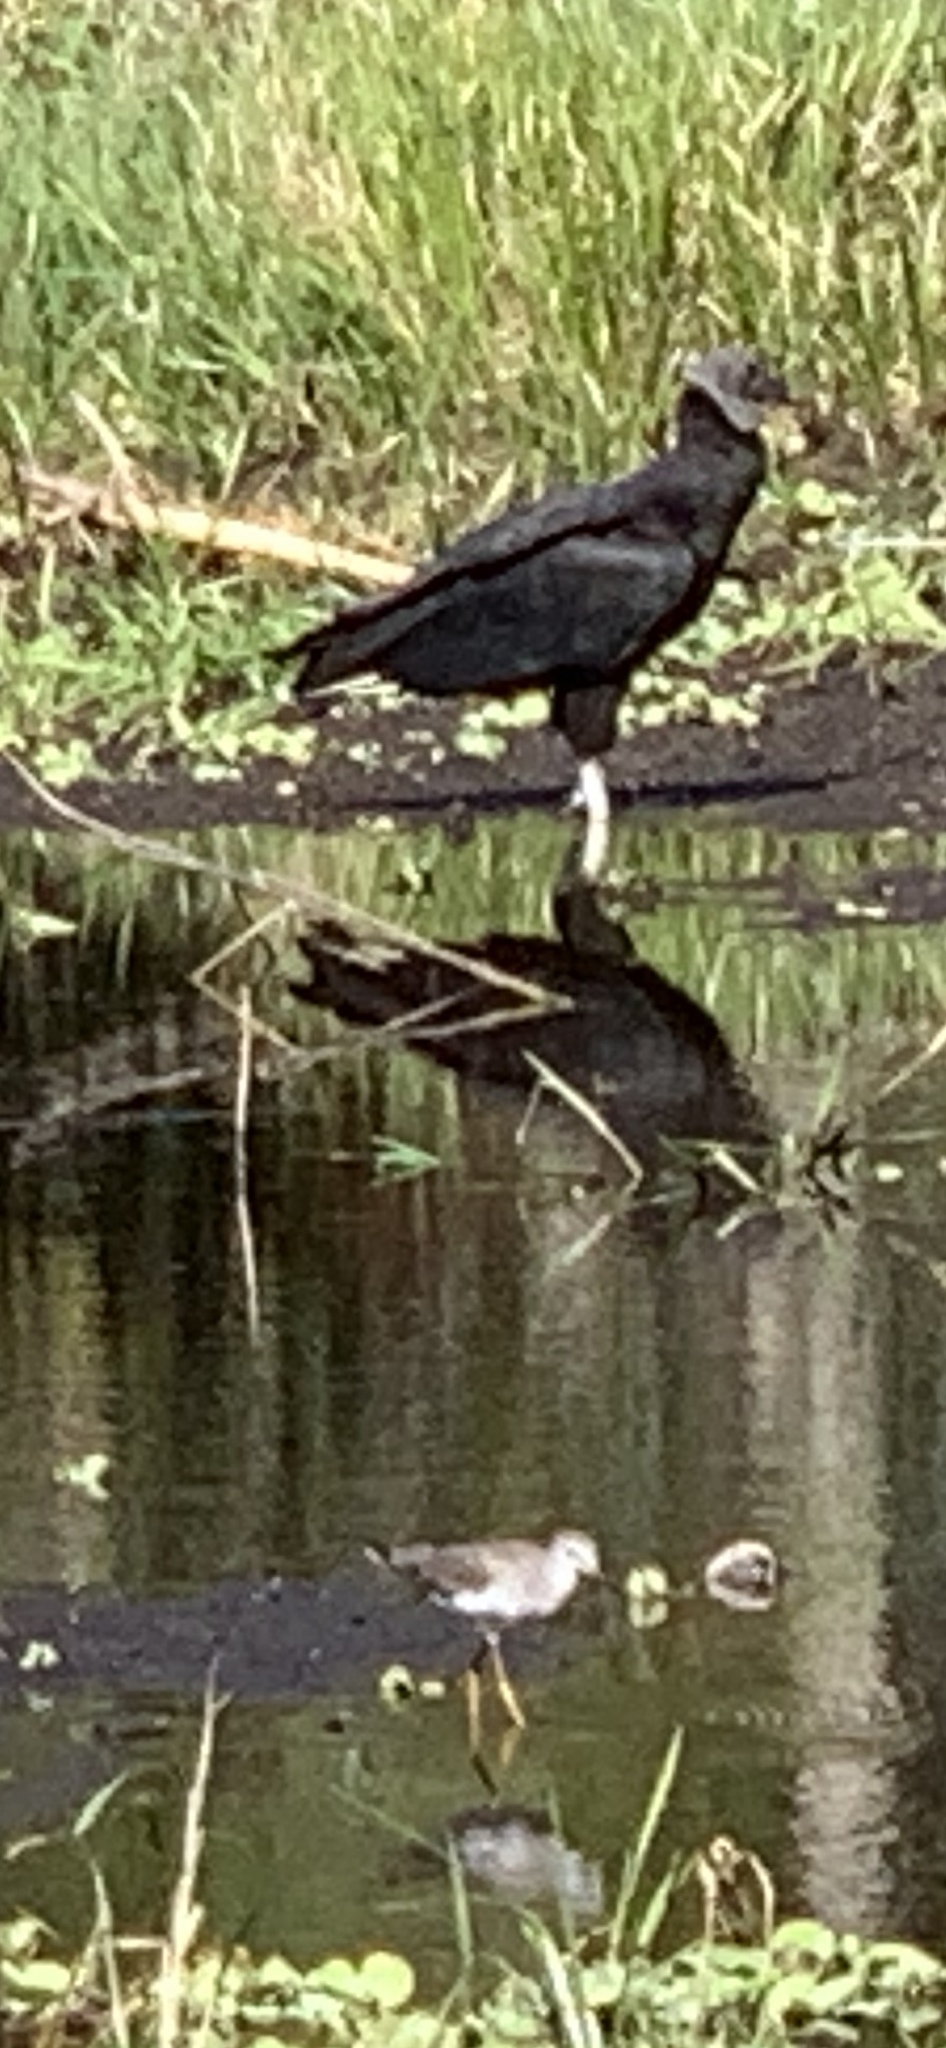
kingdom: Animalia
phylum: Chordata
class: Aves
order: Accipitriformes
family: Cathartidae
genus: Coragyps
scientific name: Coragyps atratus
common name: Black vulture
